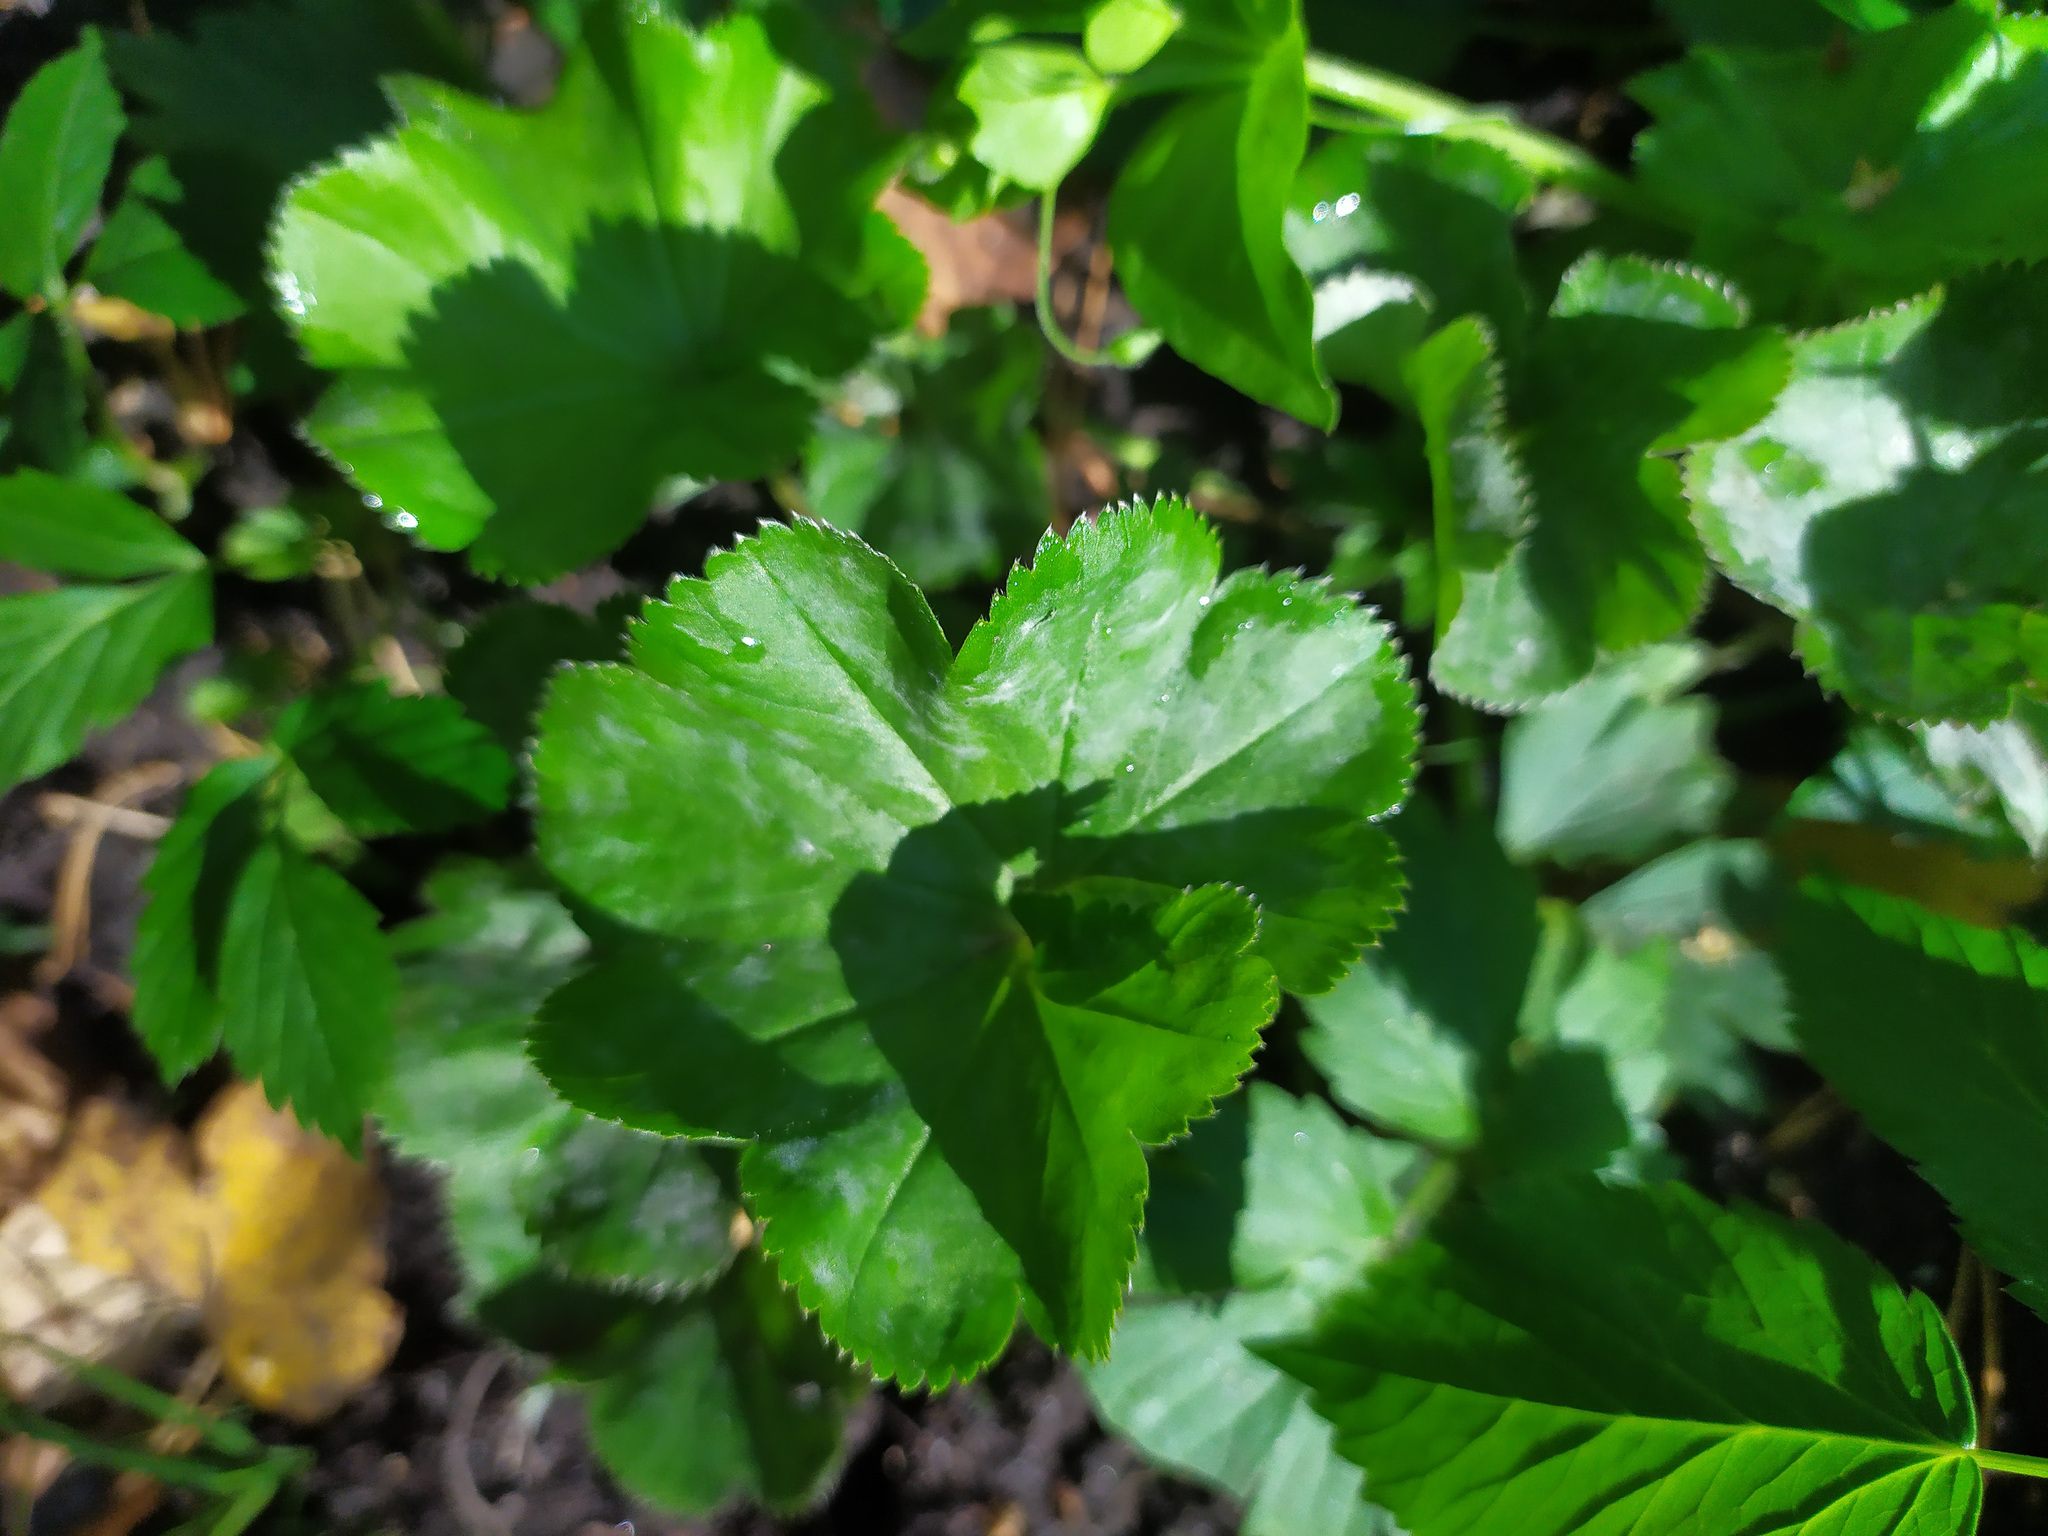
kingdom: Plantae
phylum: Tracheophyta
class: Magnoliopsida
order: Rosales
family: Rosaceae
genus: Alchemilla
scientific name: Alchemilla
